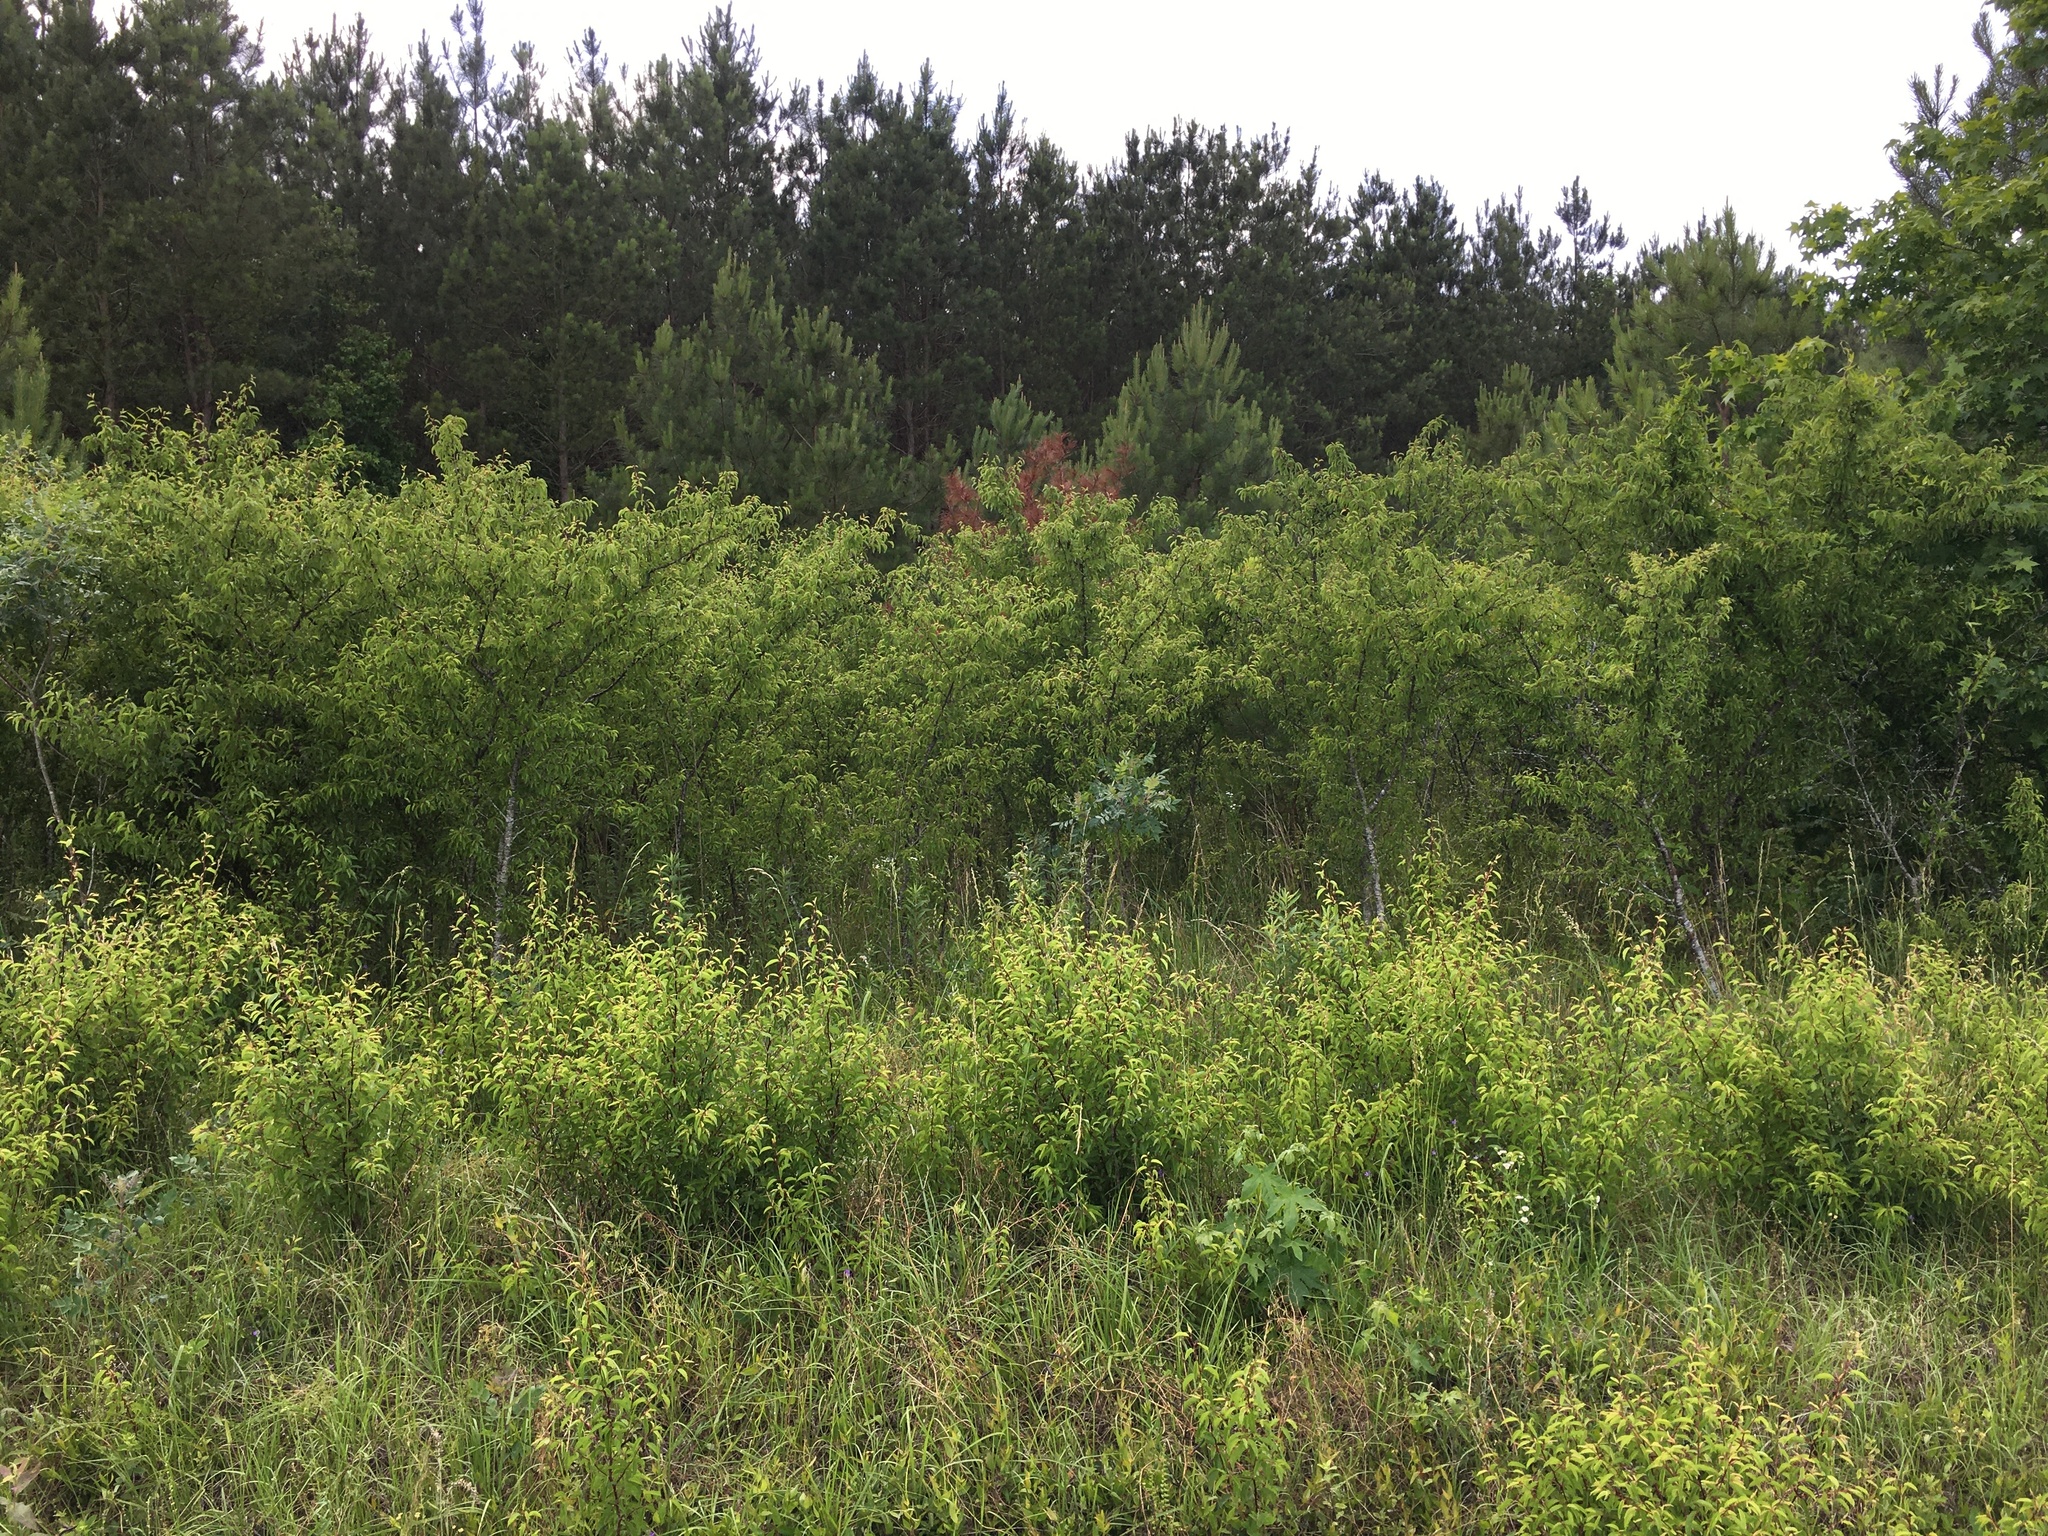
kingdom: Plantae
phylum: Tracheophyta
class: Magnoliopsida
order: Rosales
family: Rosaceae
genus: Prunus
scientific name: Prunus angustifolia
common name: Cherokee plum
